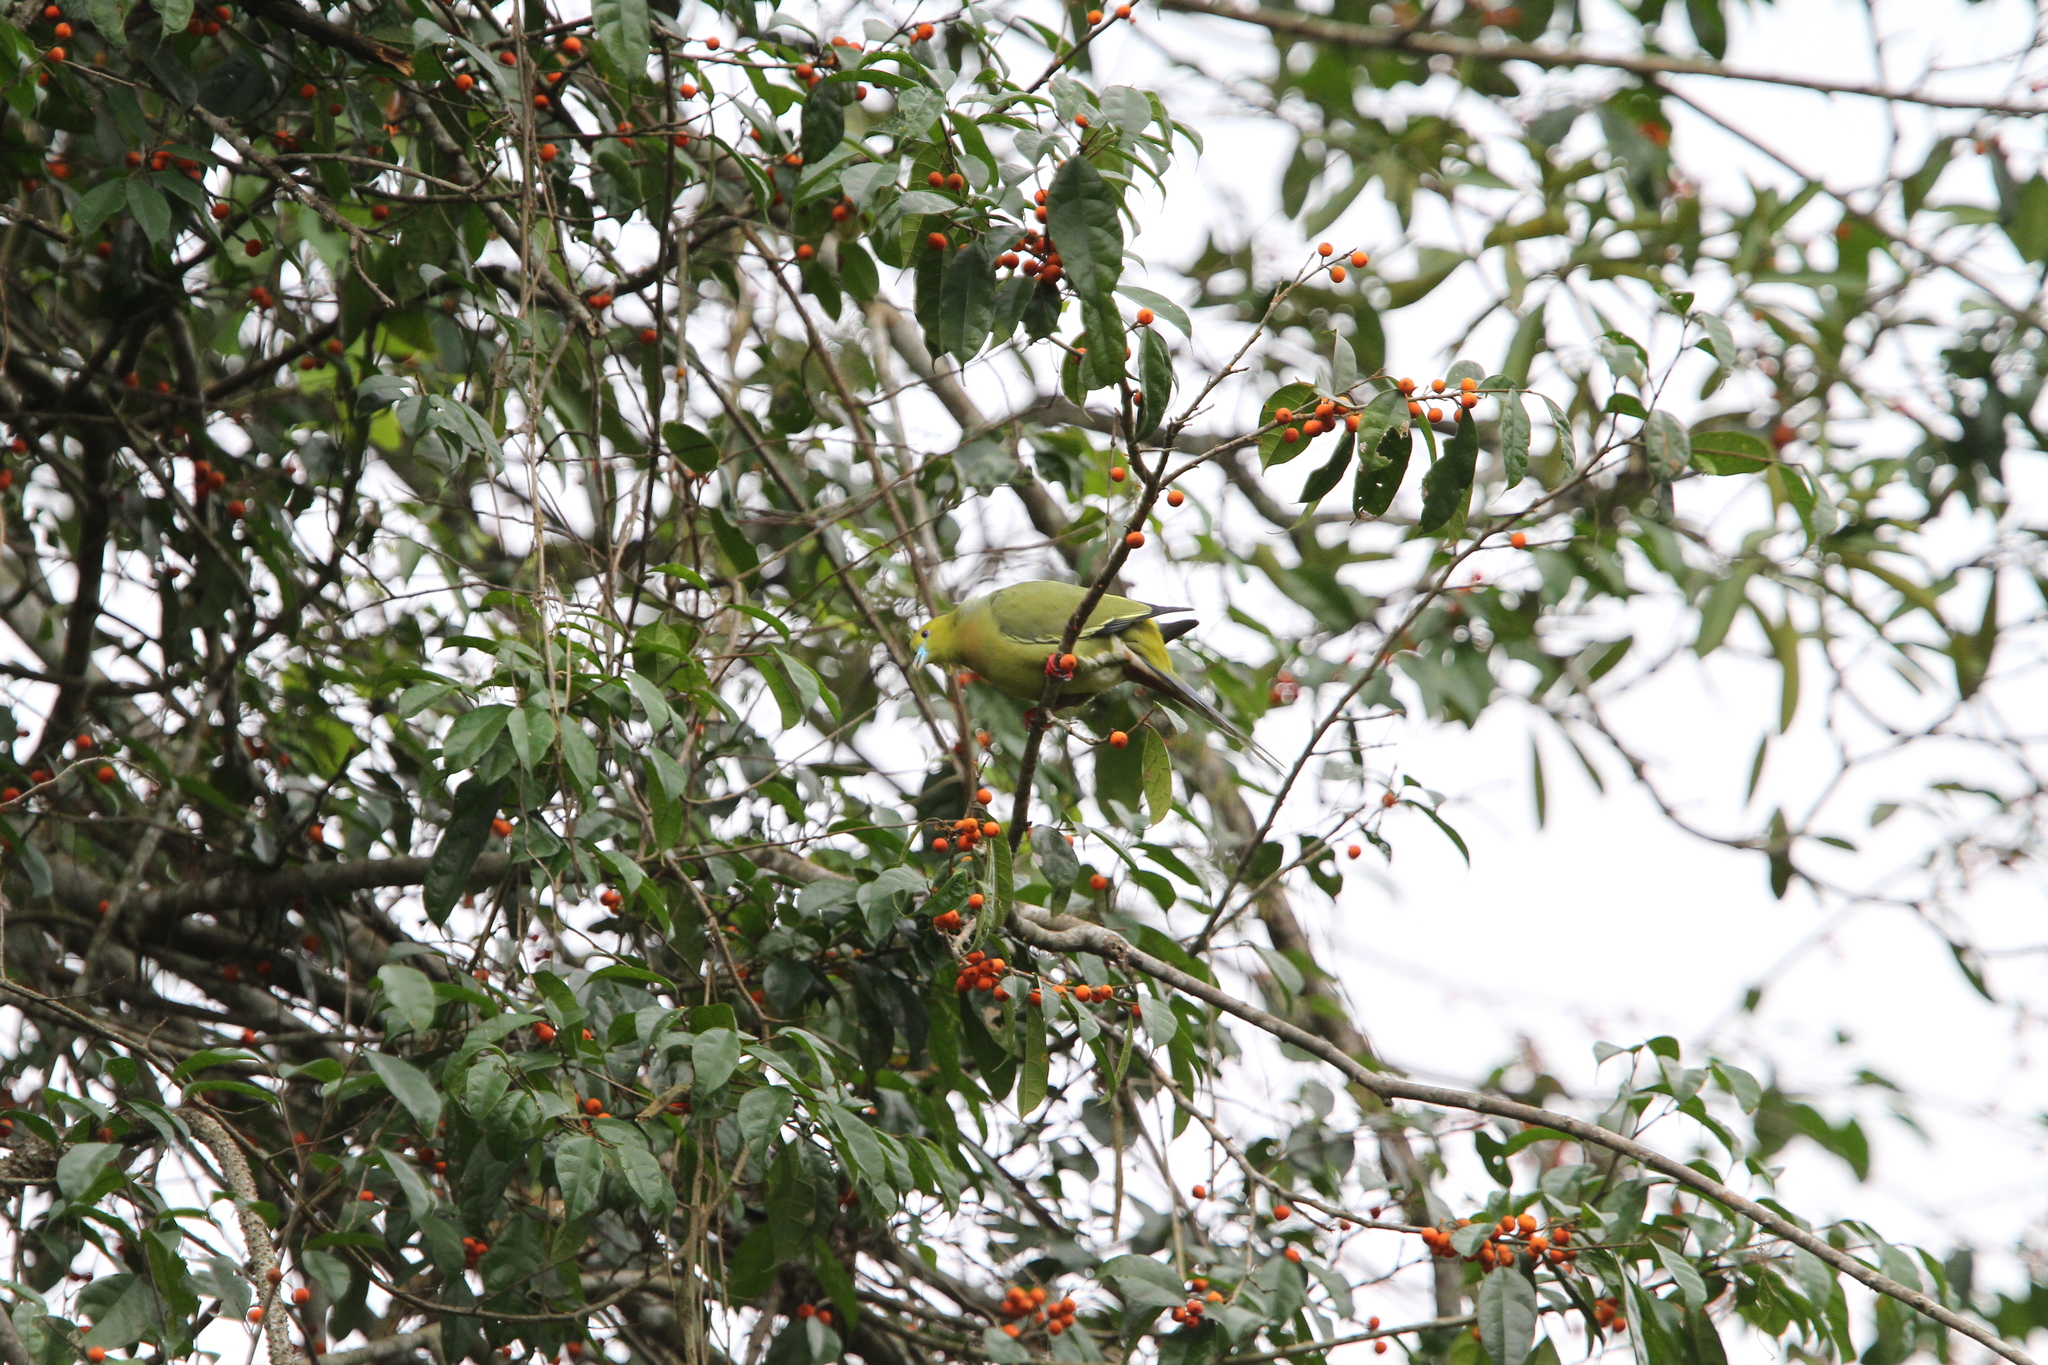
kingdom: Animalia
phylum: Chordata
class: Aves
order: Columbiformes
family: Columbidae
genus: Treron
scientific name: Treron apicauda
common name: Pin-tailed green pigeon
